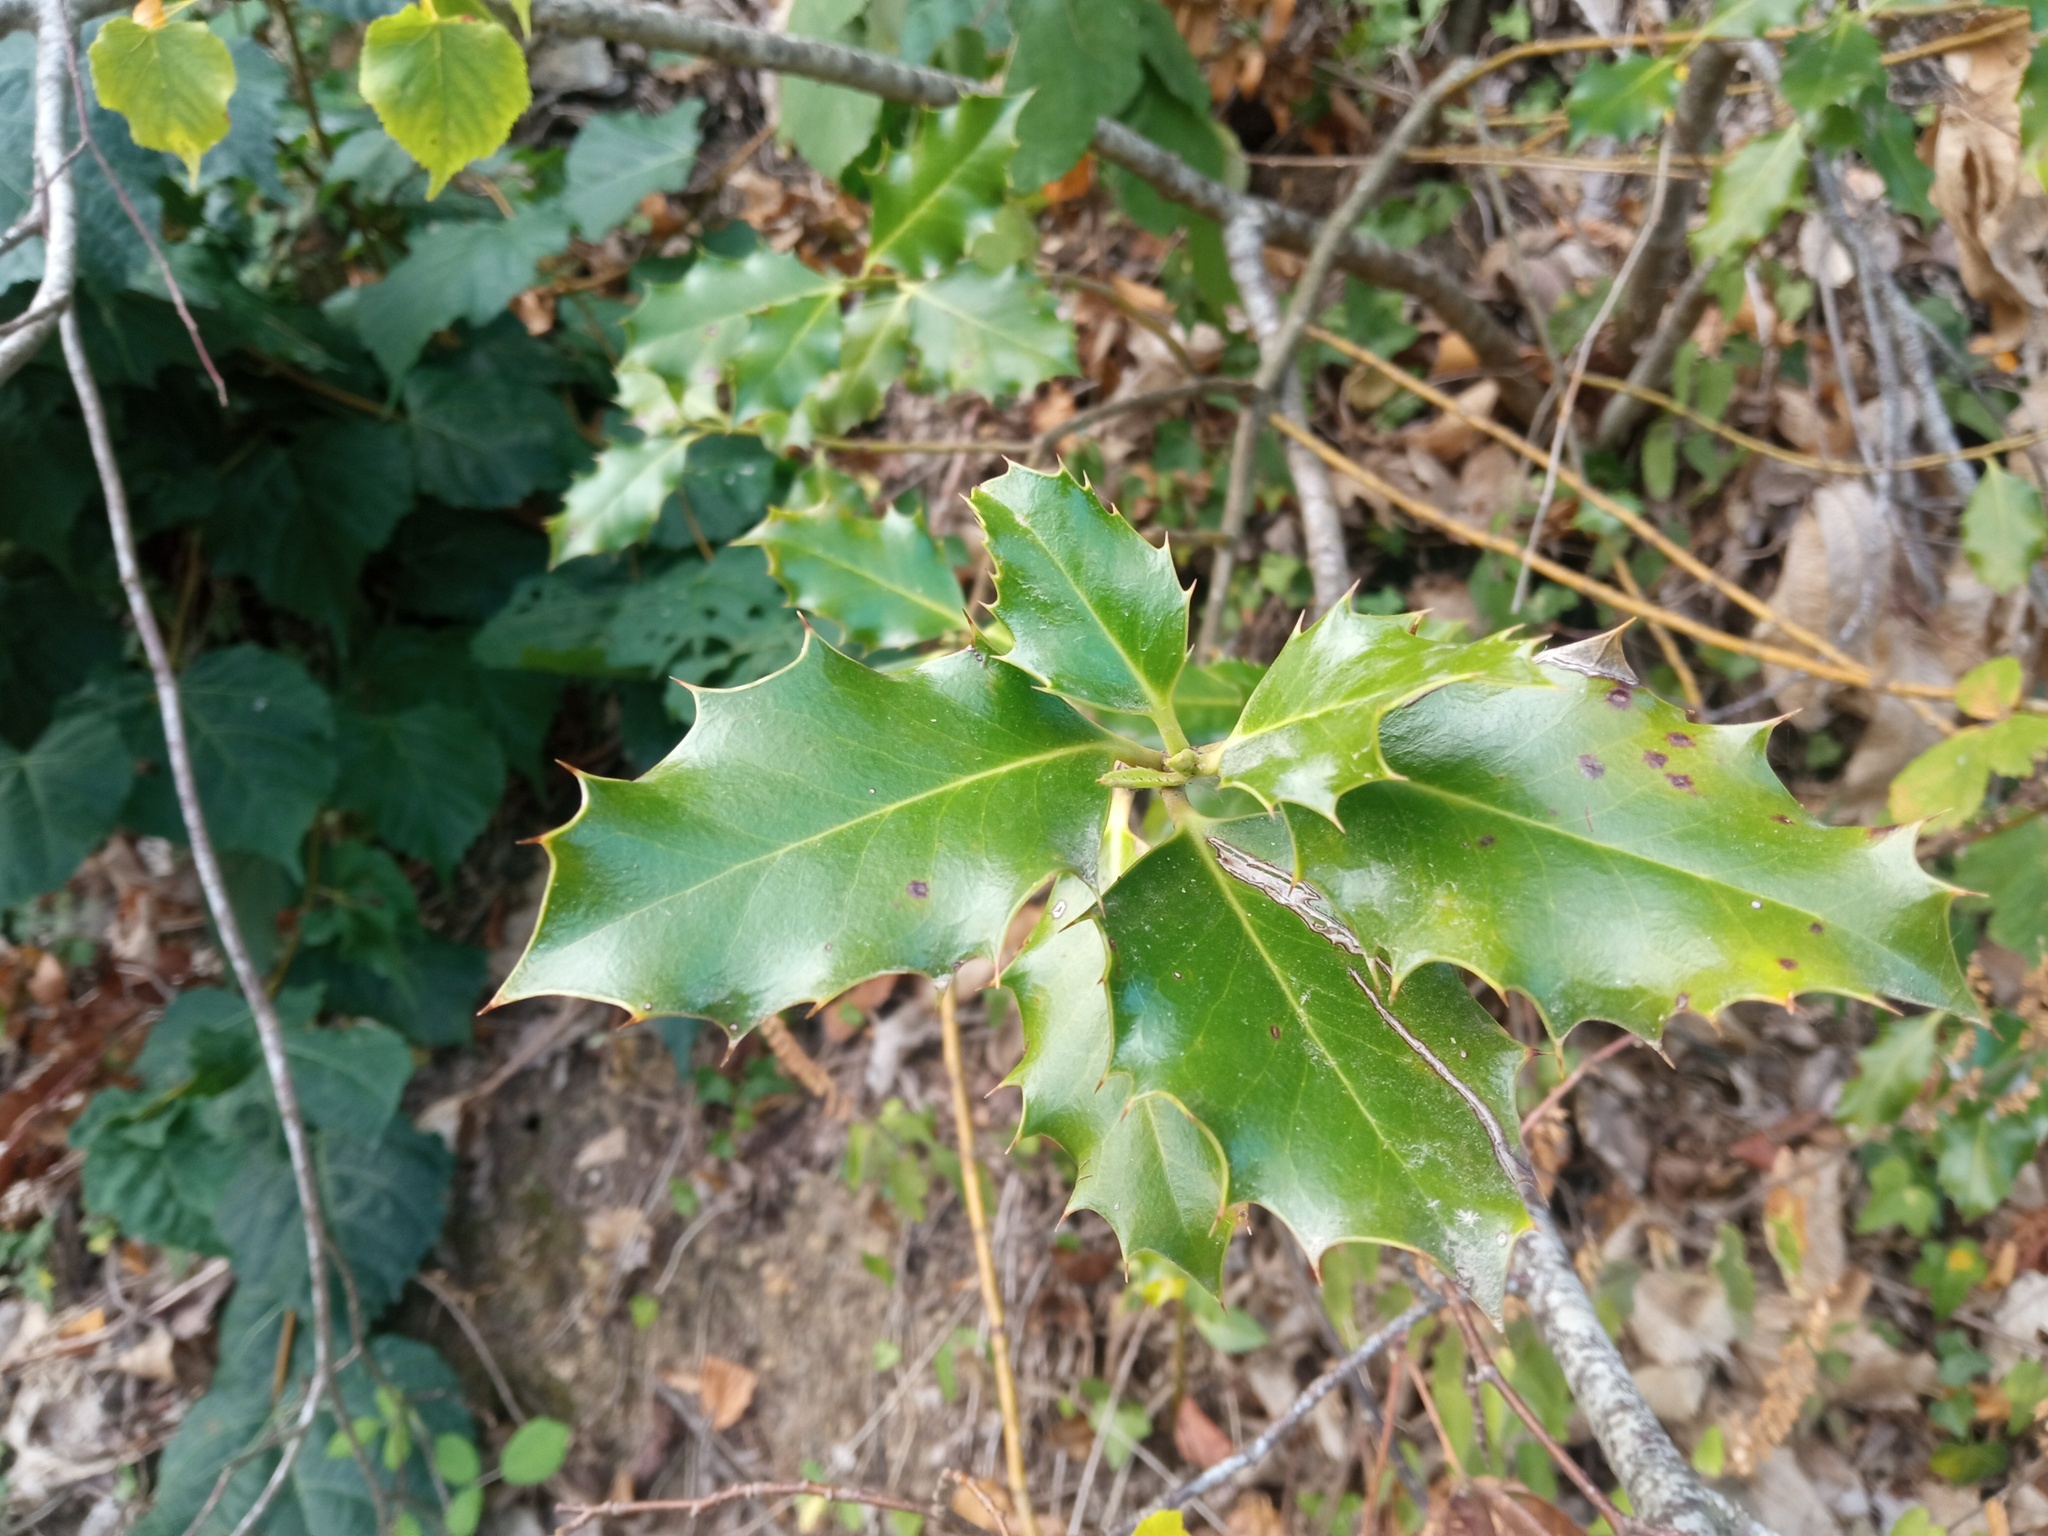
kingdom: Plantae
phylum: Tracheophyta
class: Magnoliopsida
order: Aquifoliales
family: Aquifoliaceae
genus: Ilex
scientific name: Ilex aquifolium
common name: English holly
